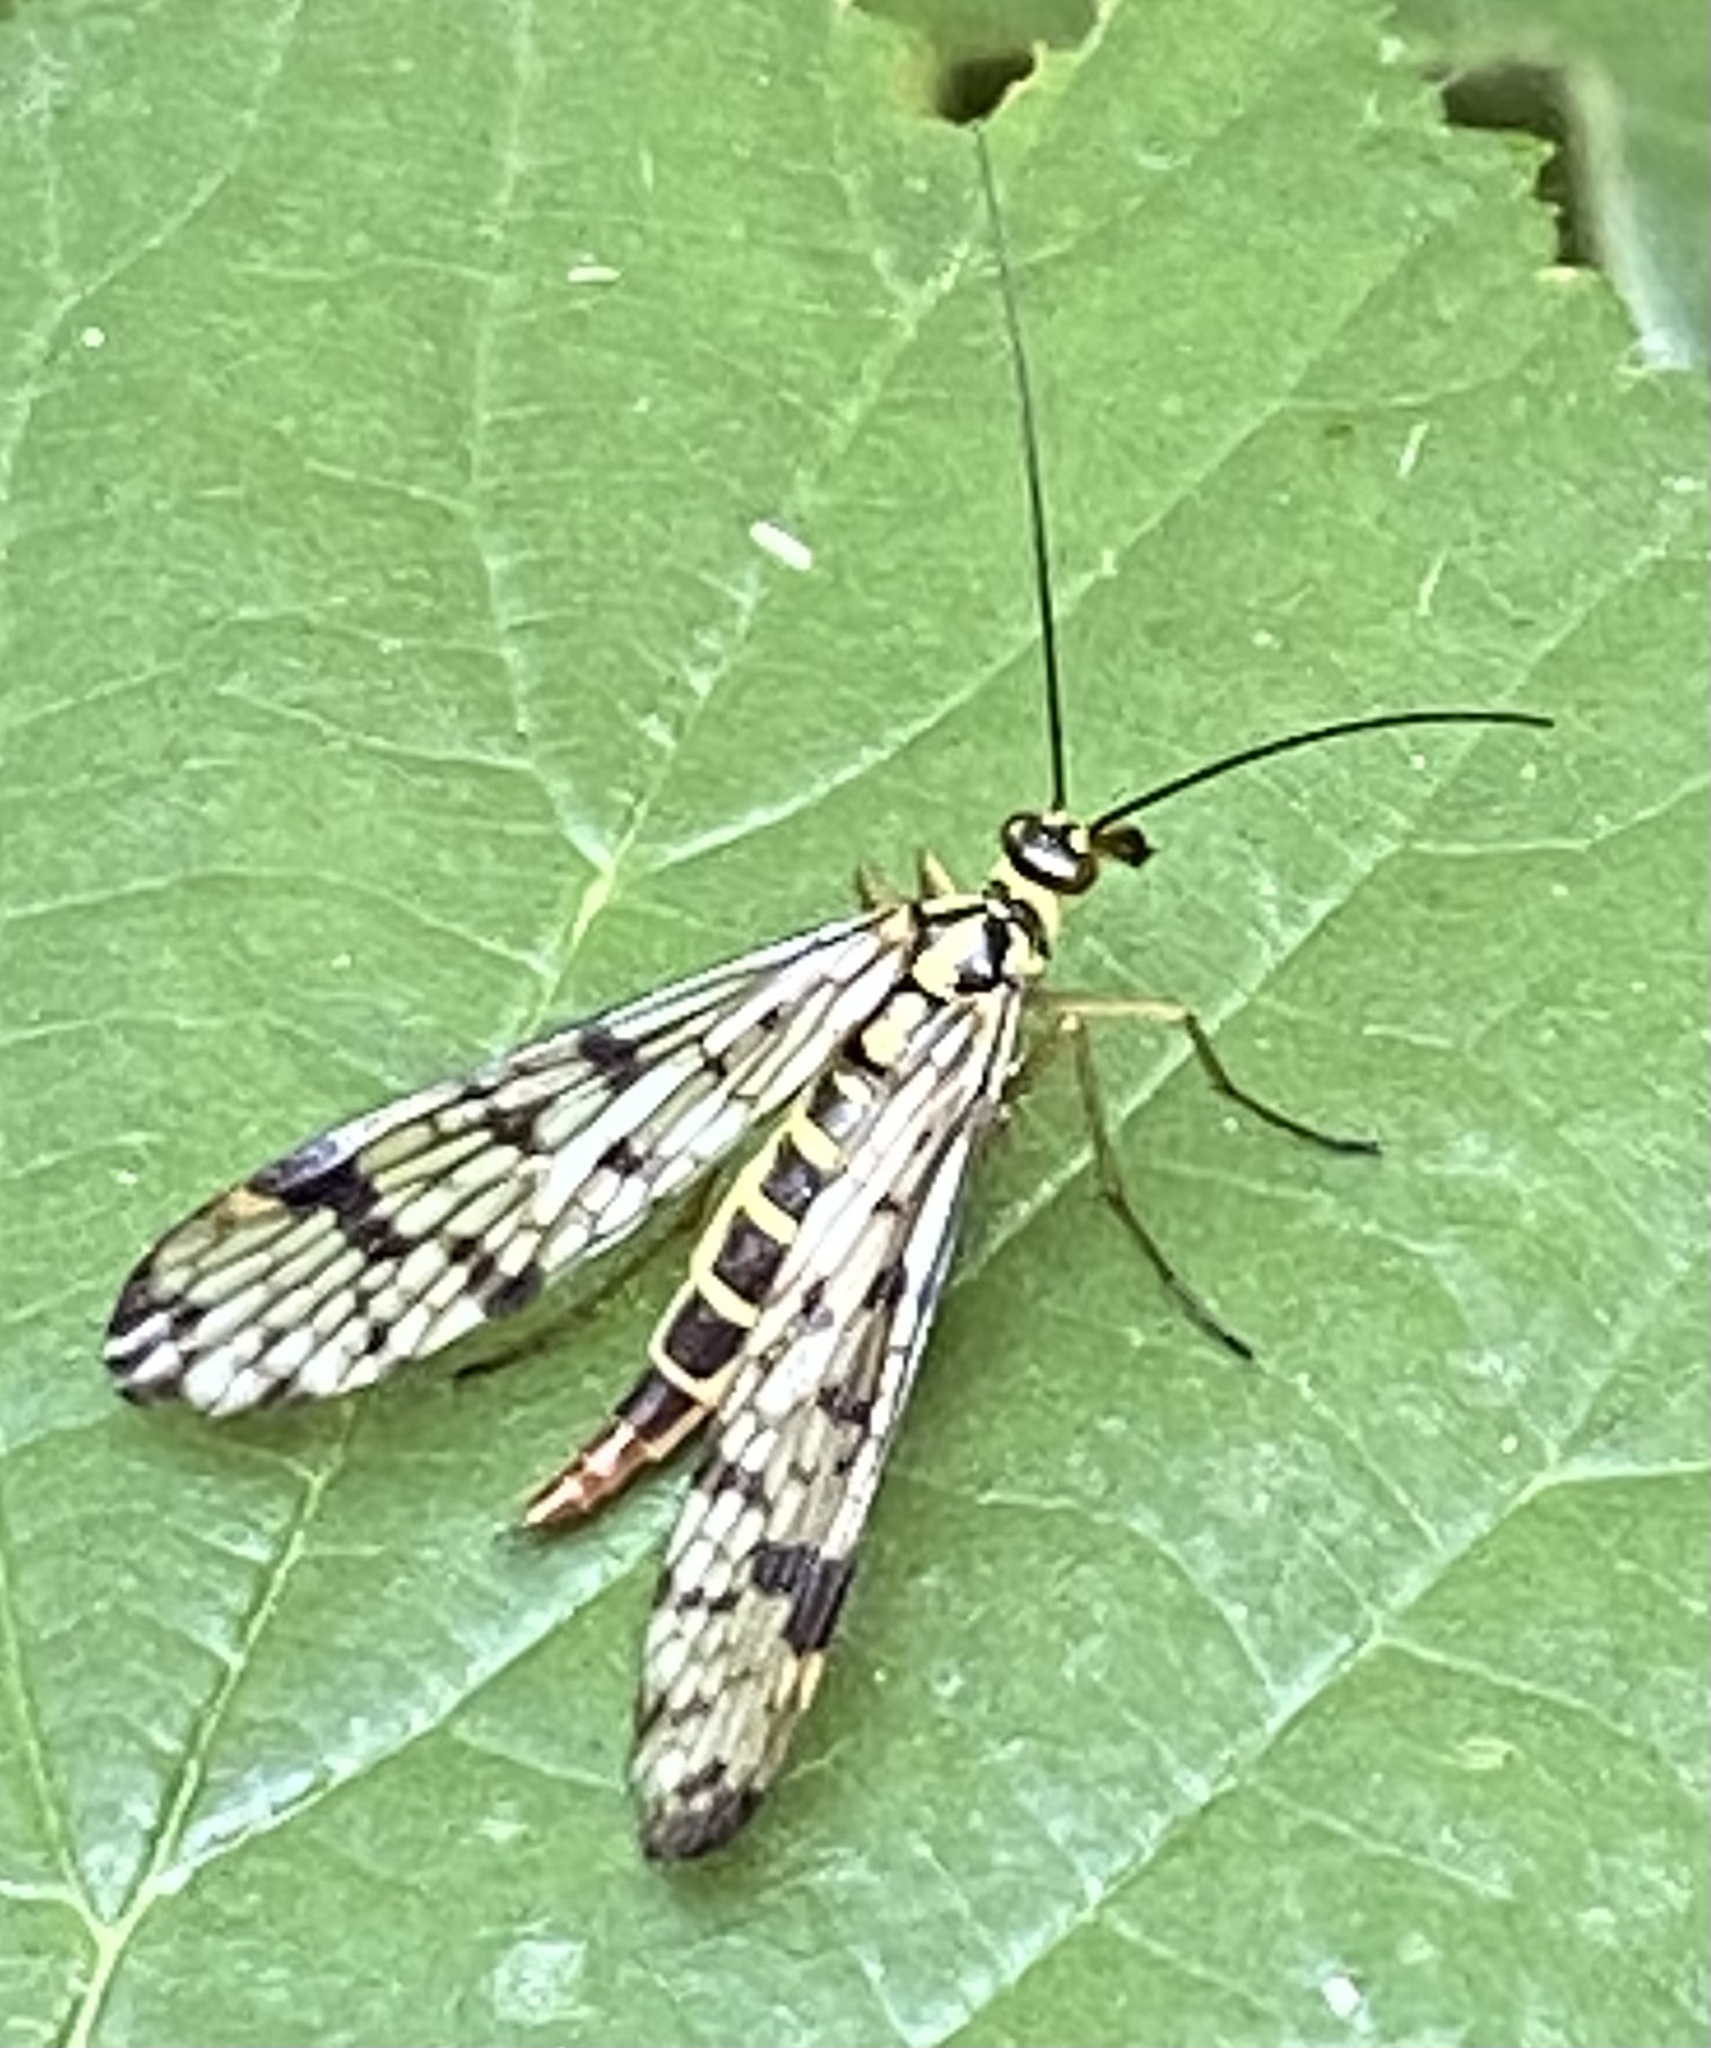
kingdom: Animalia
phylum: Arthropoda
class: Insecta
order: Mecoptera
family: Panorpidae
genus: Panorpa
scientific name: Panorpa germanica
